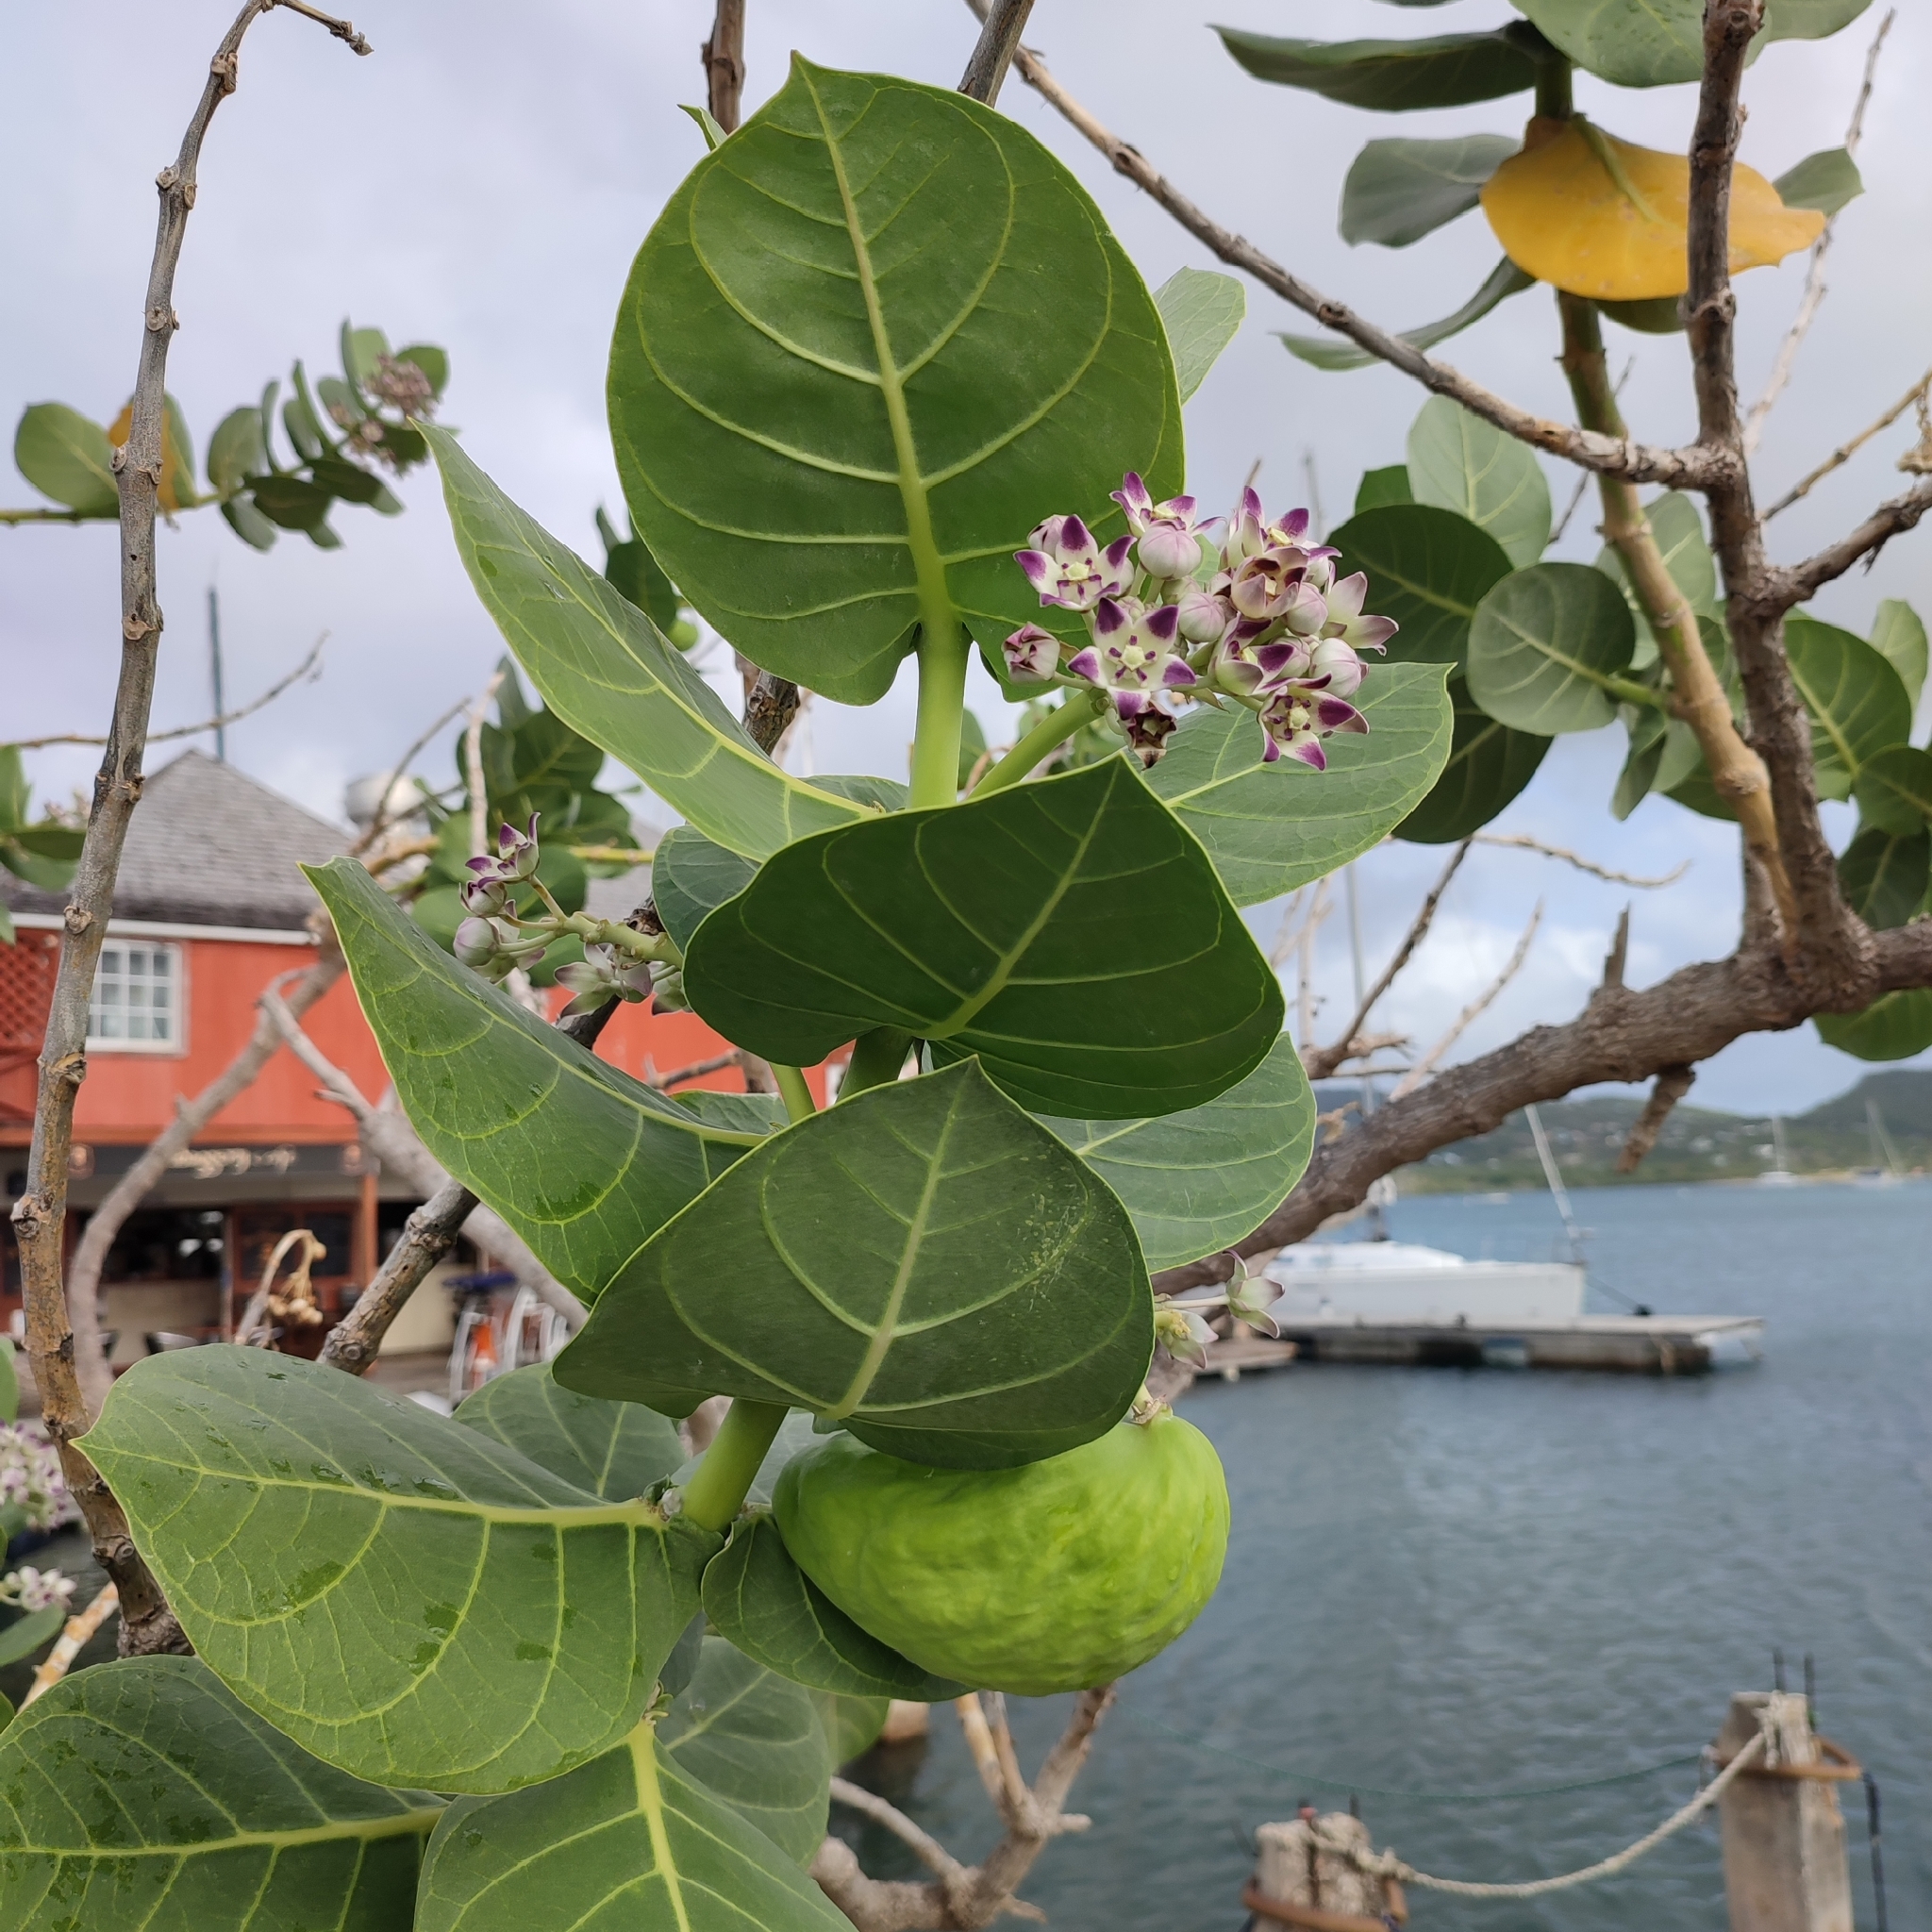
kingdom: Plantae
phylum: Tracheophyta
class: Magnoliopsida
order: Gentianales
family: Apocynaceae
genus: Calotropis
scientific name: Calotropis procera
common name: Roostertree
